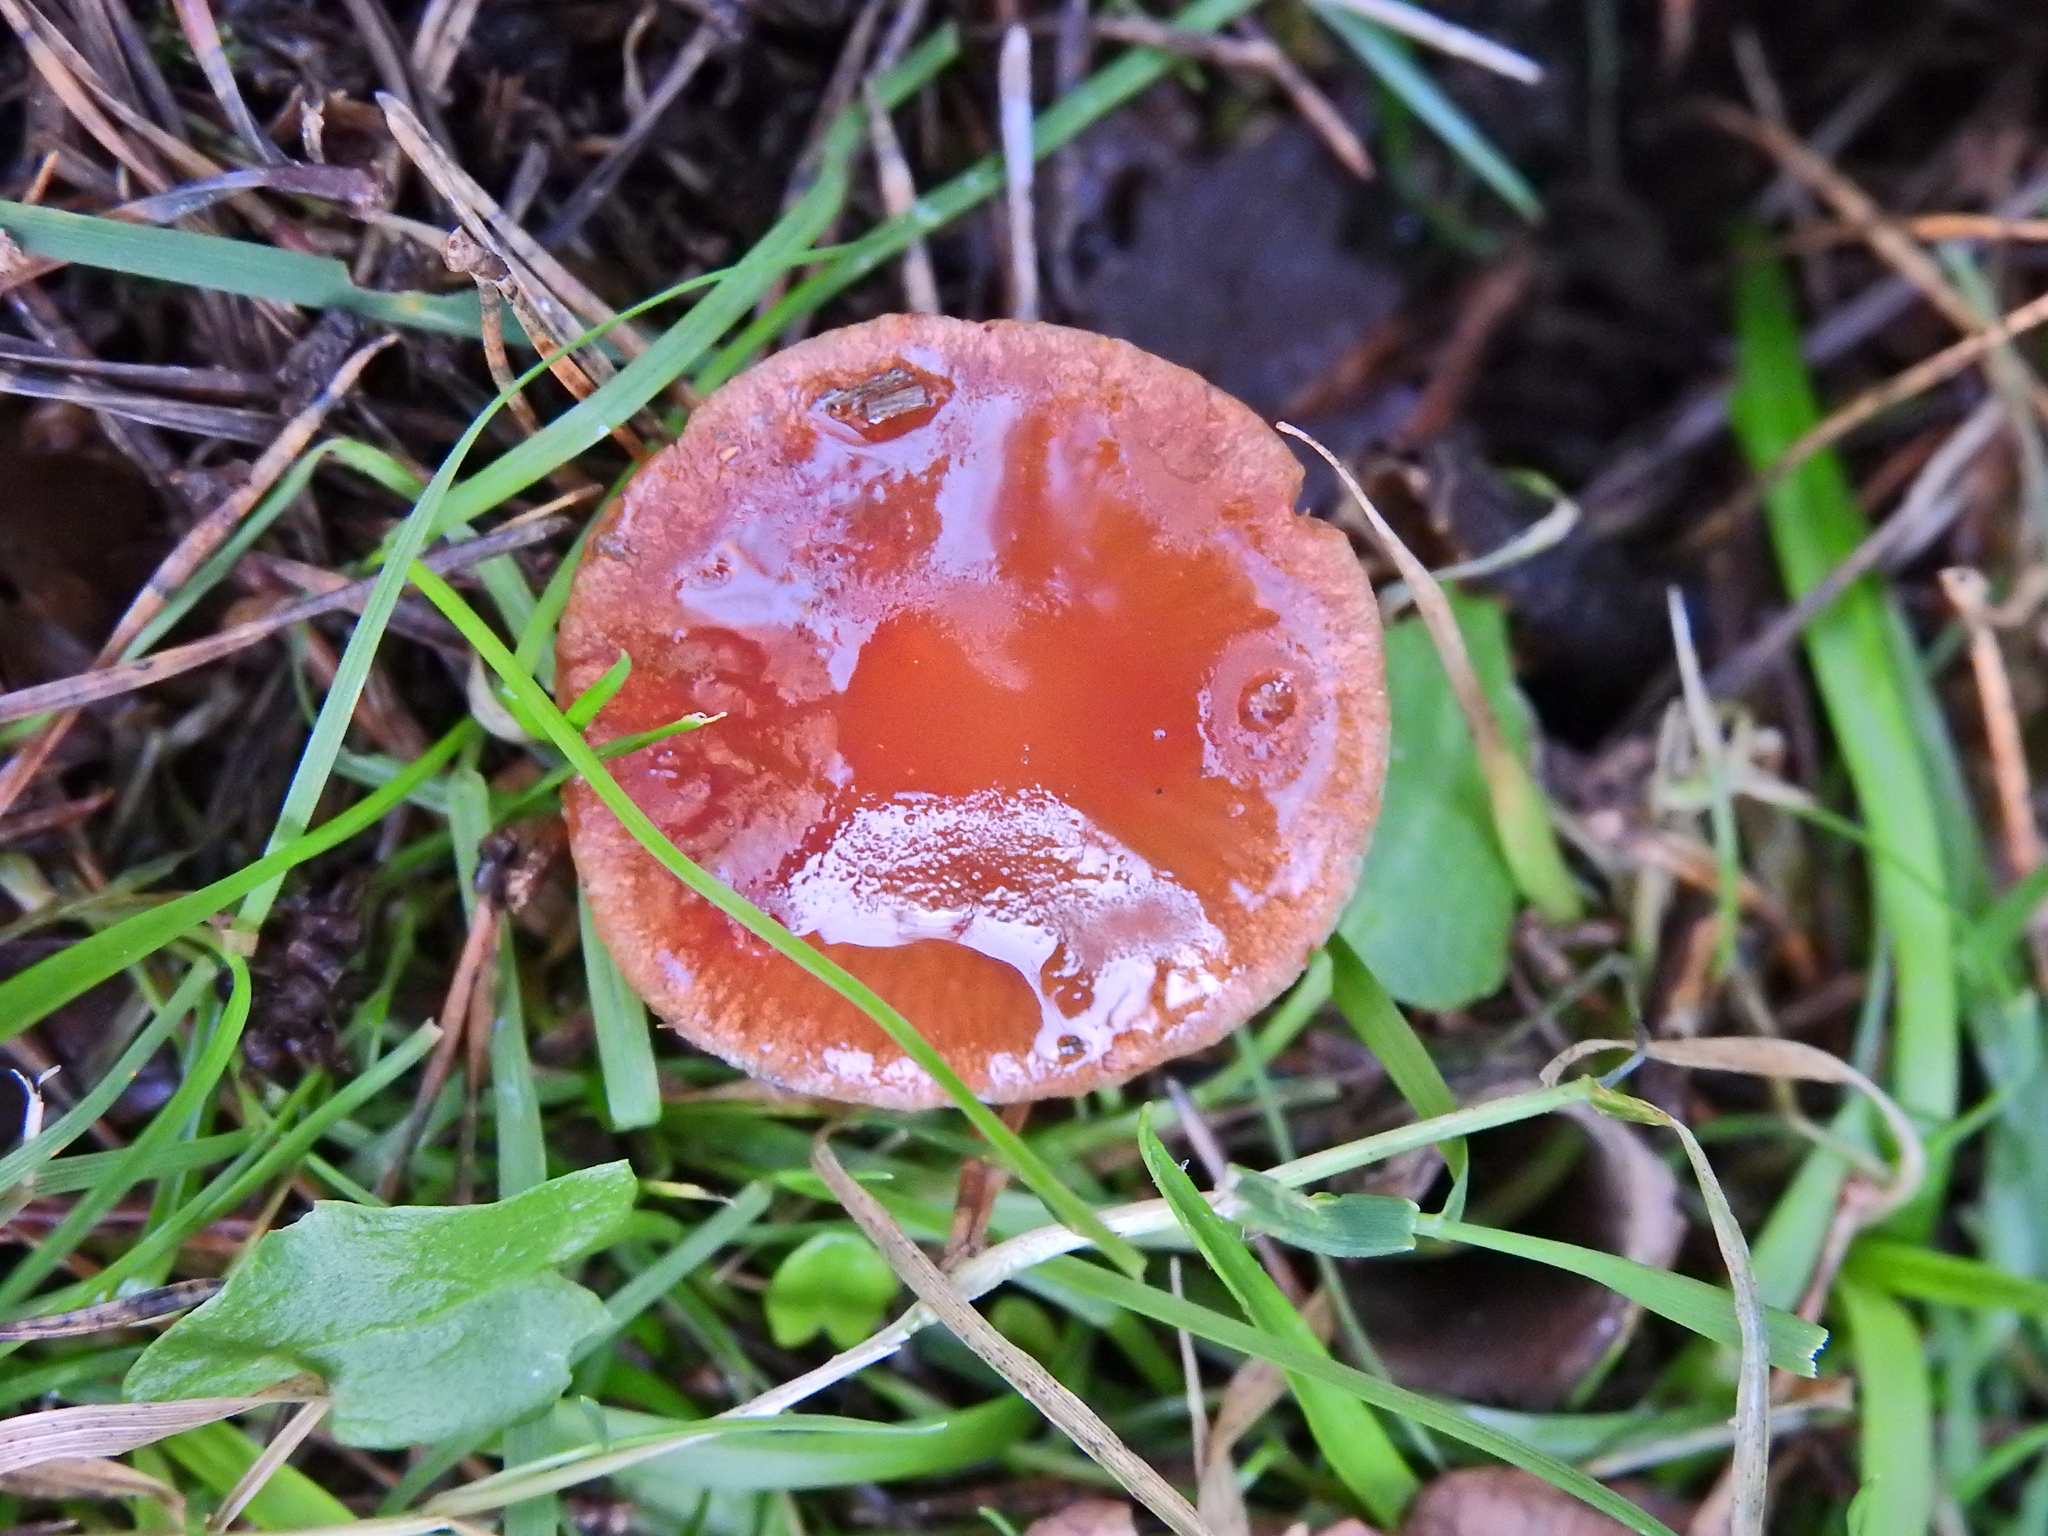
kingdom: Fungi
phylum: Basidiomycota
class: Agaricomycetes
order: Agaricales
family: Strophariaceae
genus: Leratiomyces
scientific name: Leratiomyces ceres
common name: Redlead roundhead
